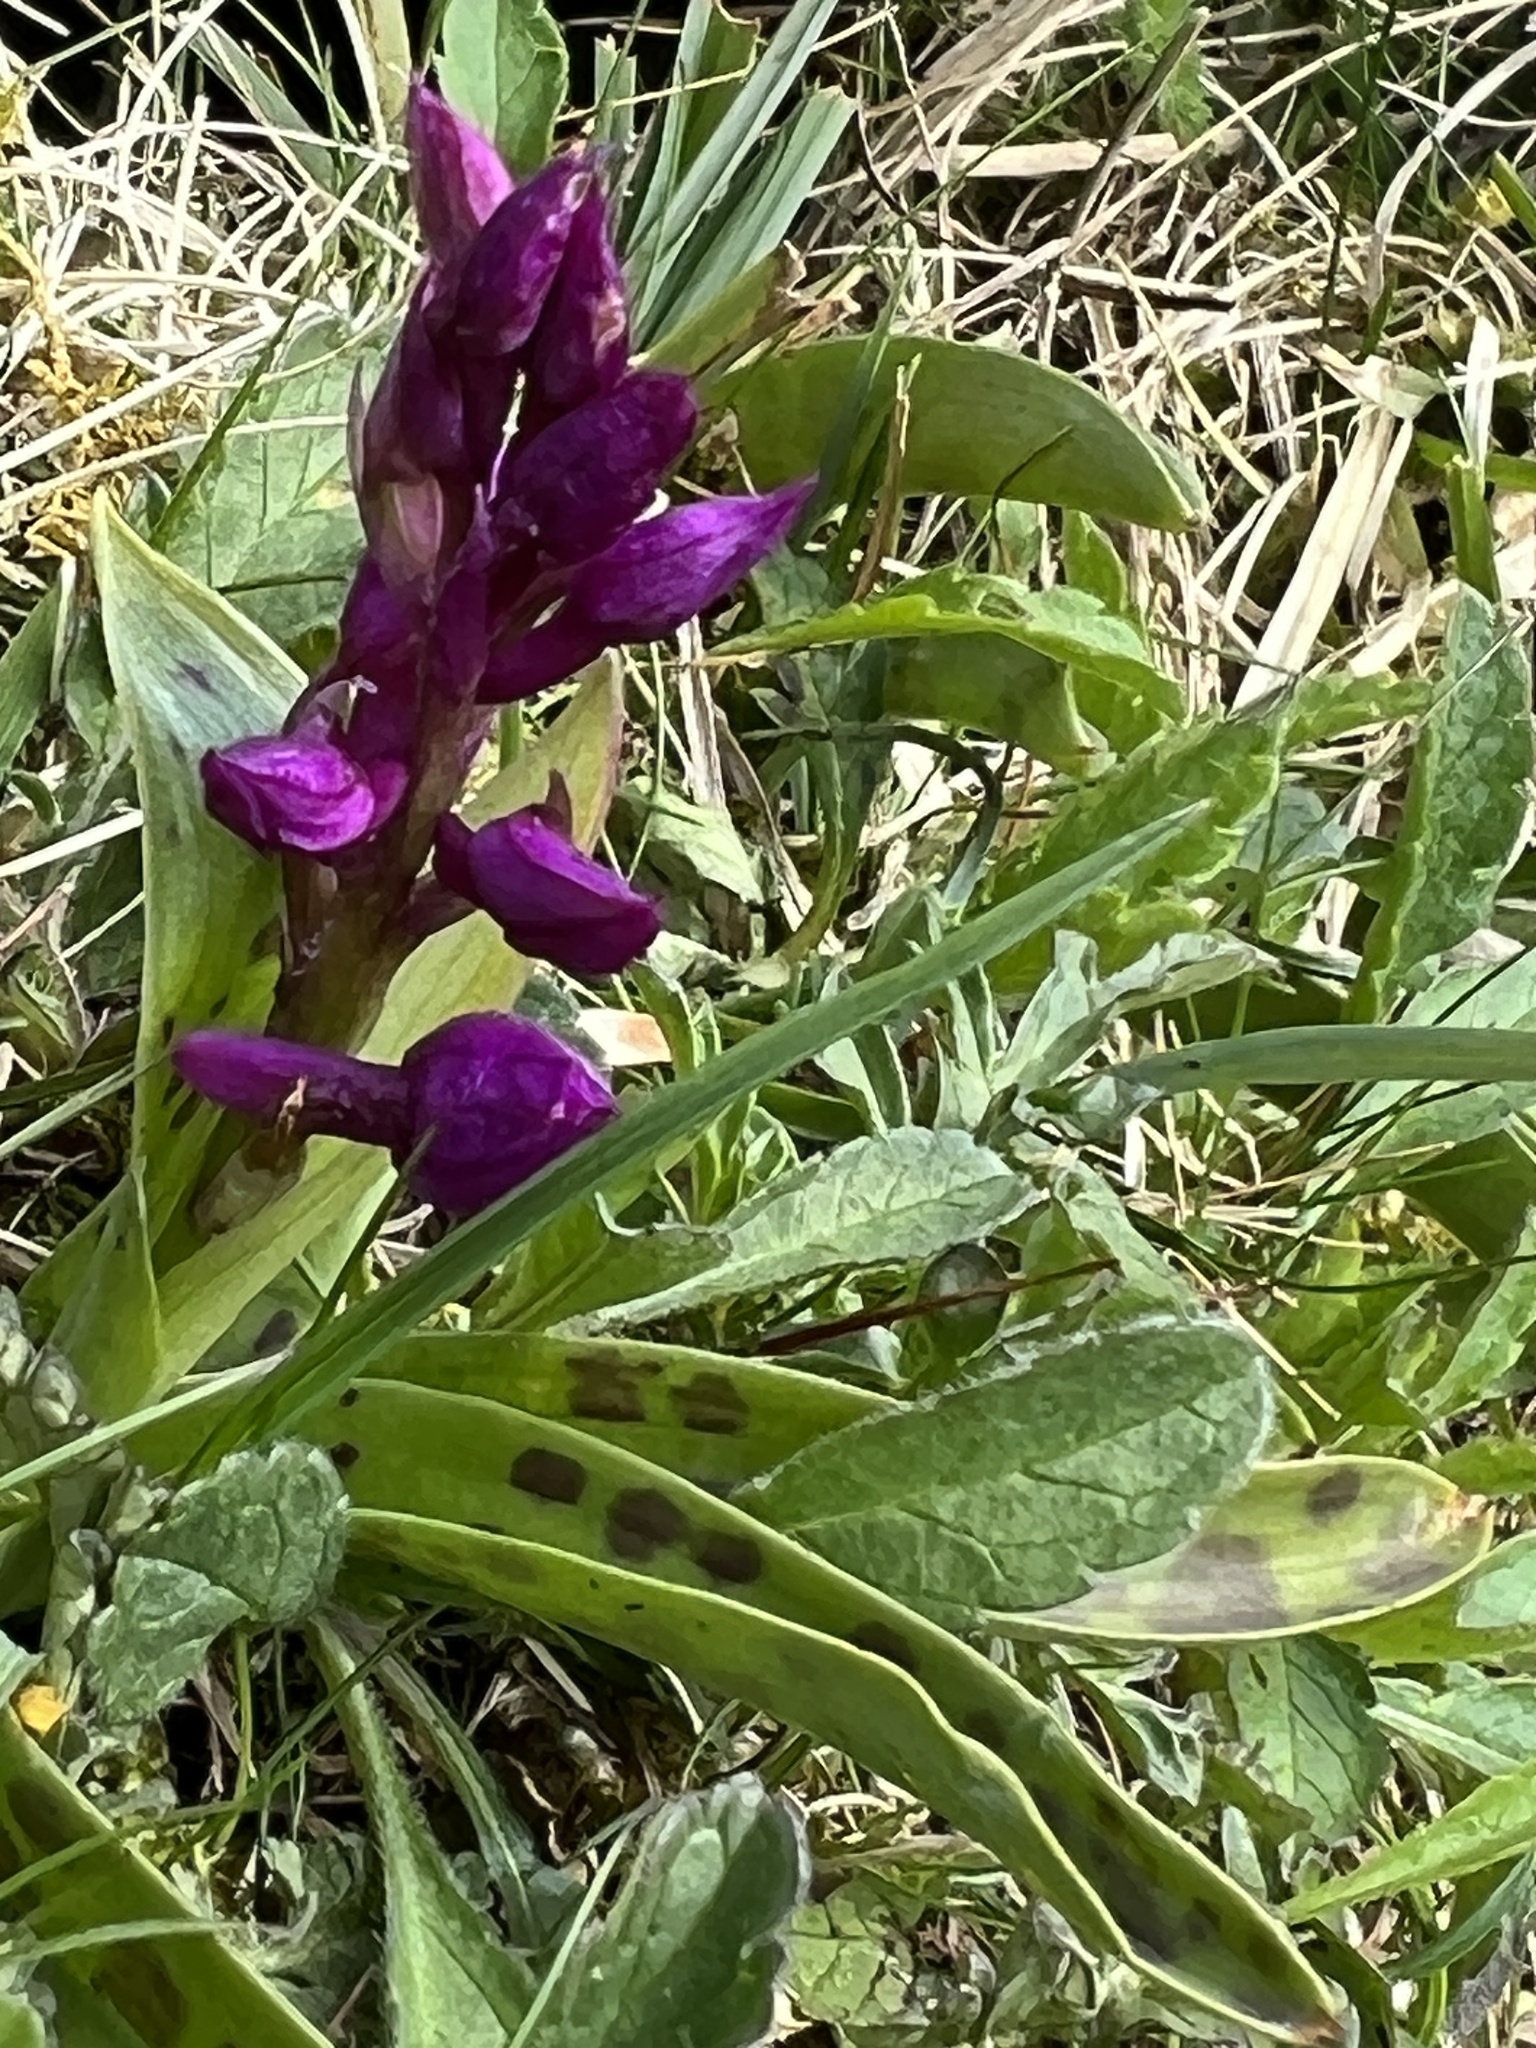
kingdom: Plantae
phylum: Tracheophyta
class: Liliopsida
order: Asparagales
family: Orchidaceae
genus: Orchis
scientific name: Orchis mascula
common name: Early-purple orchid
